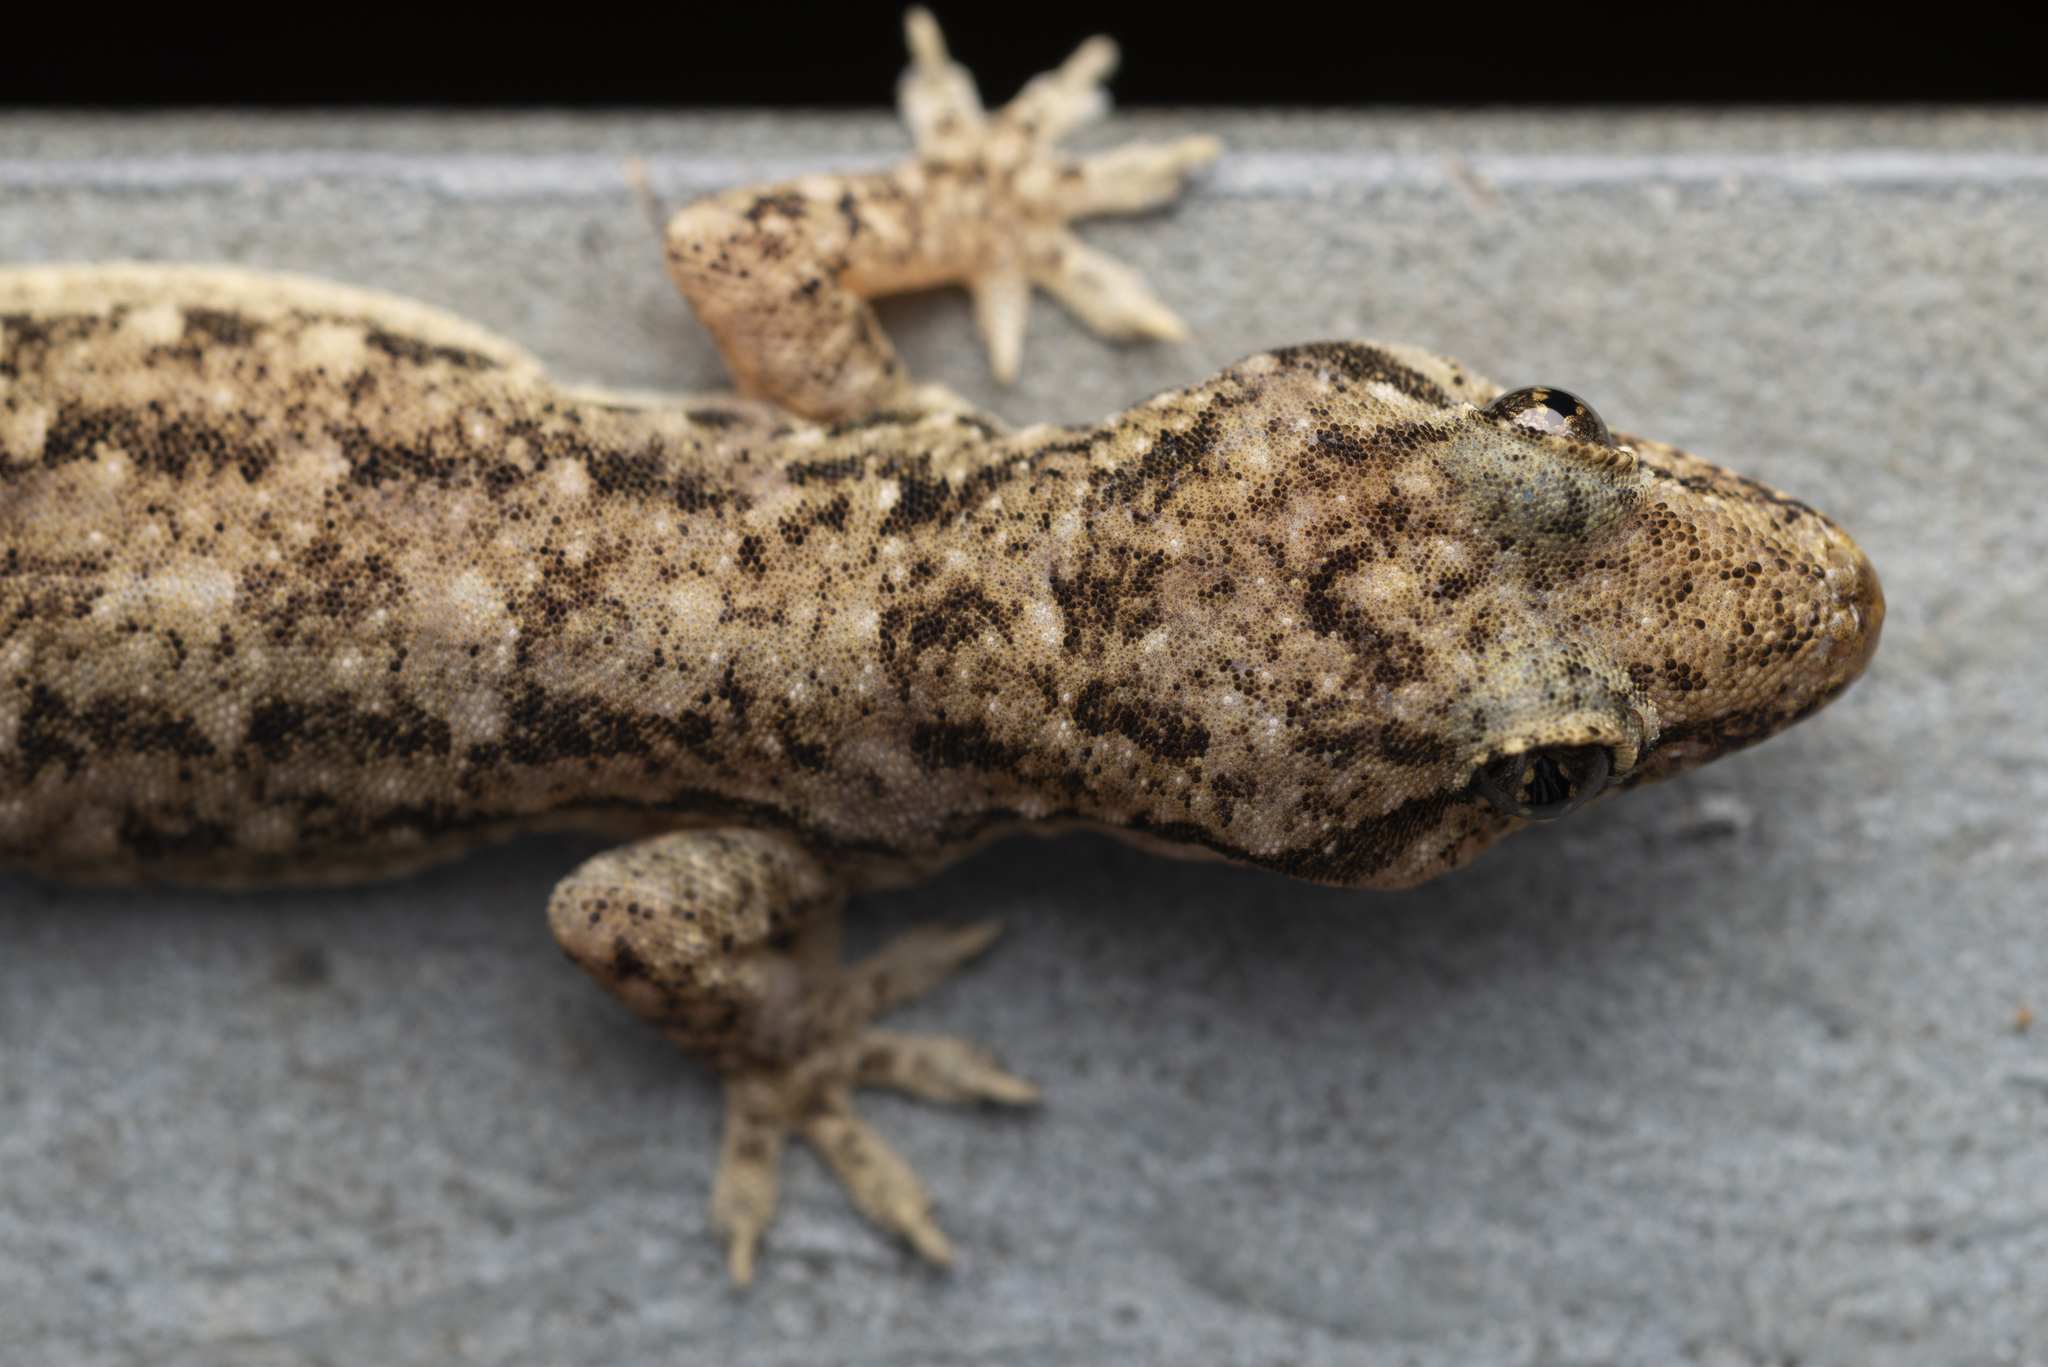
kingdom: Animalia
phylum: Chordata
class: Squamata
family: Gekkonidae
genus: Hemidactylus
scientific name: Hemidactylus bowringii
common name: Oriental leaf-toed gecko
